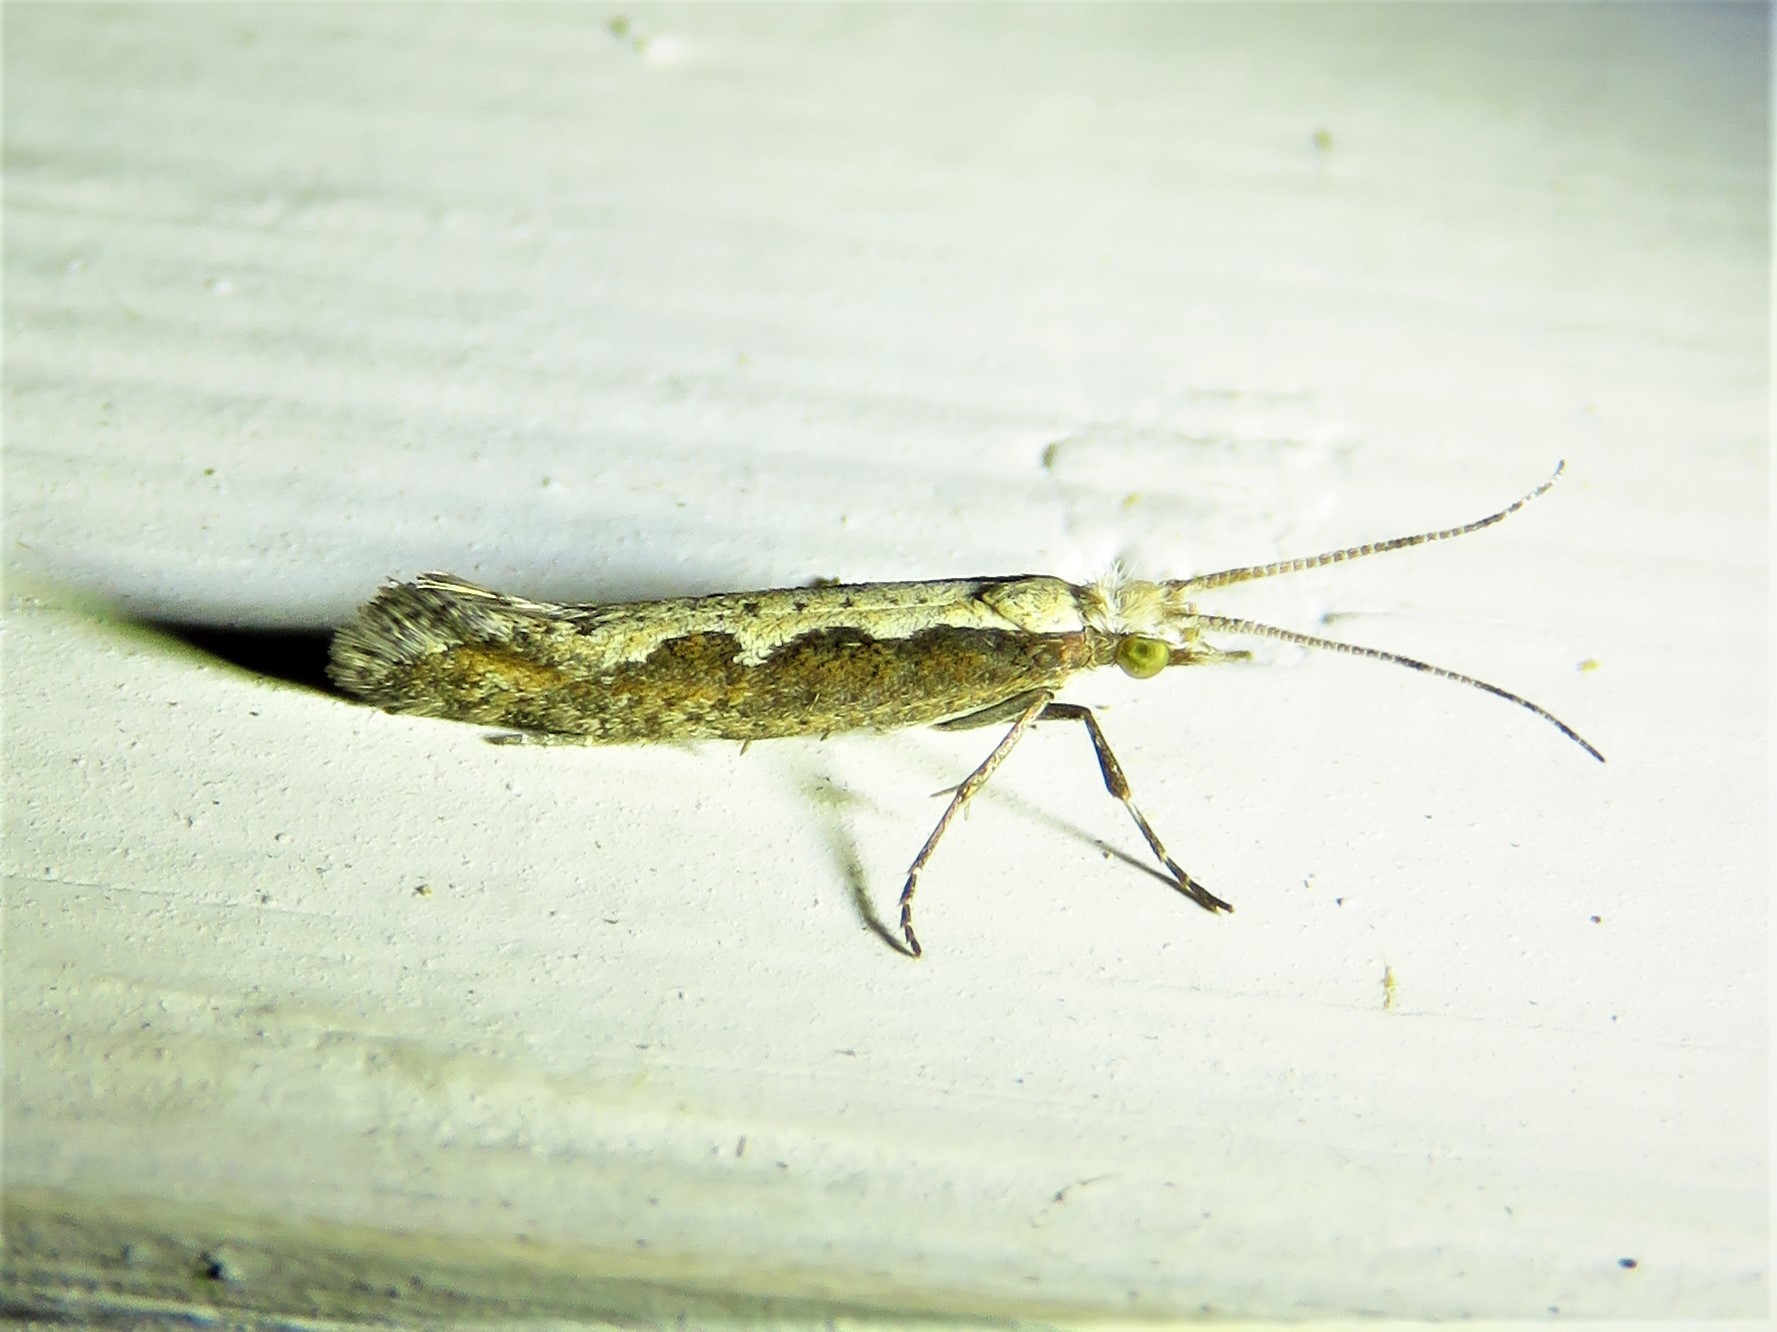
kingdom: Animalia
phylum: Arthropoda
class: Insecta
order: Lepidoptera
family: Plutellidae
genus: Plutella
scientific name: Plutella xylostella
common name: Diamond-back moth
